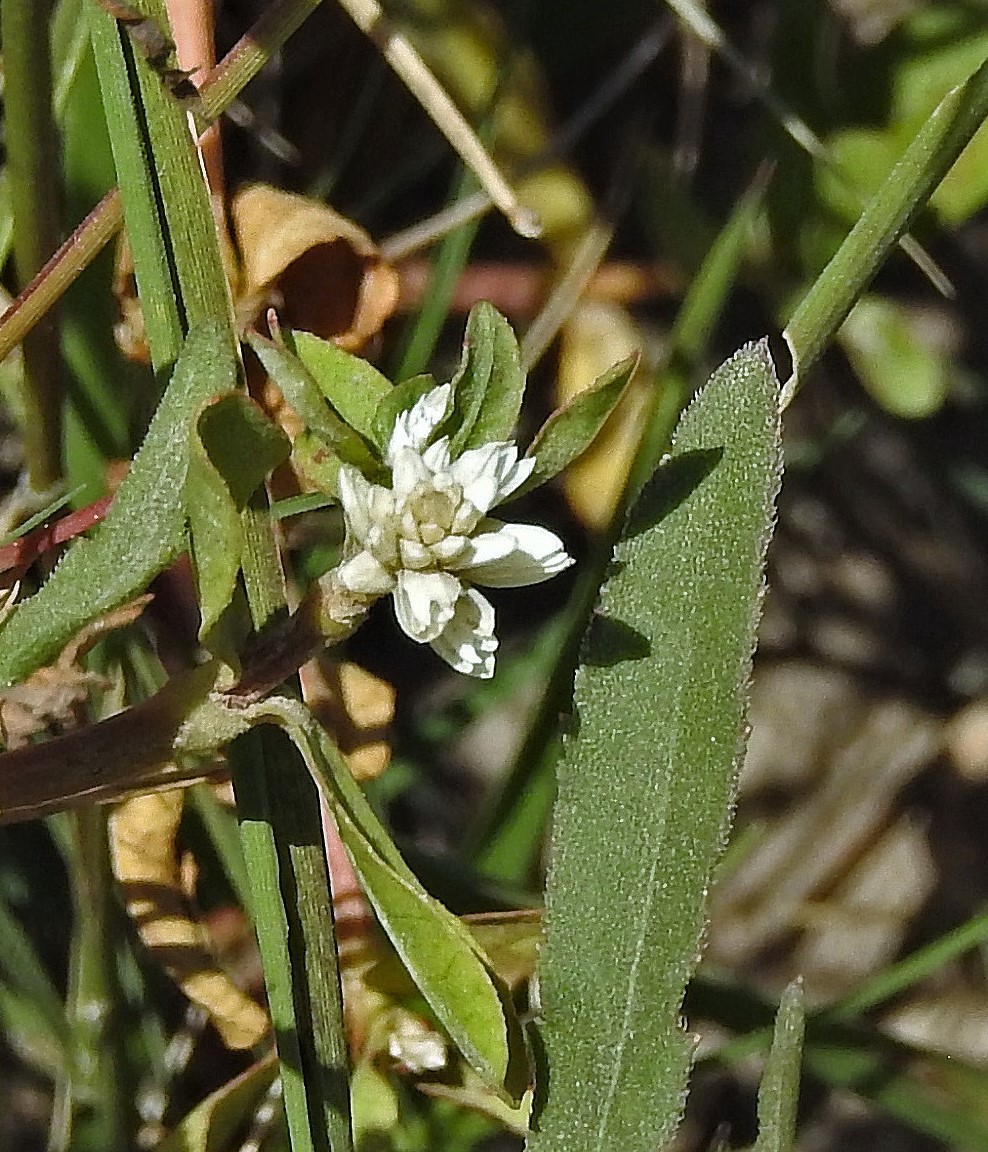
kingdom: Plantae
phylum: Tracheophyta
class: Magnoliopsida
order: Caryophyllales
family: Amaranthaceae
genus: Alternanthera
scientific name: Alternanthera philoxeroides
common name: Alligatorweed
